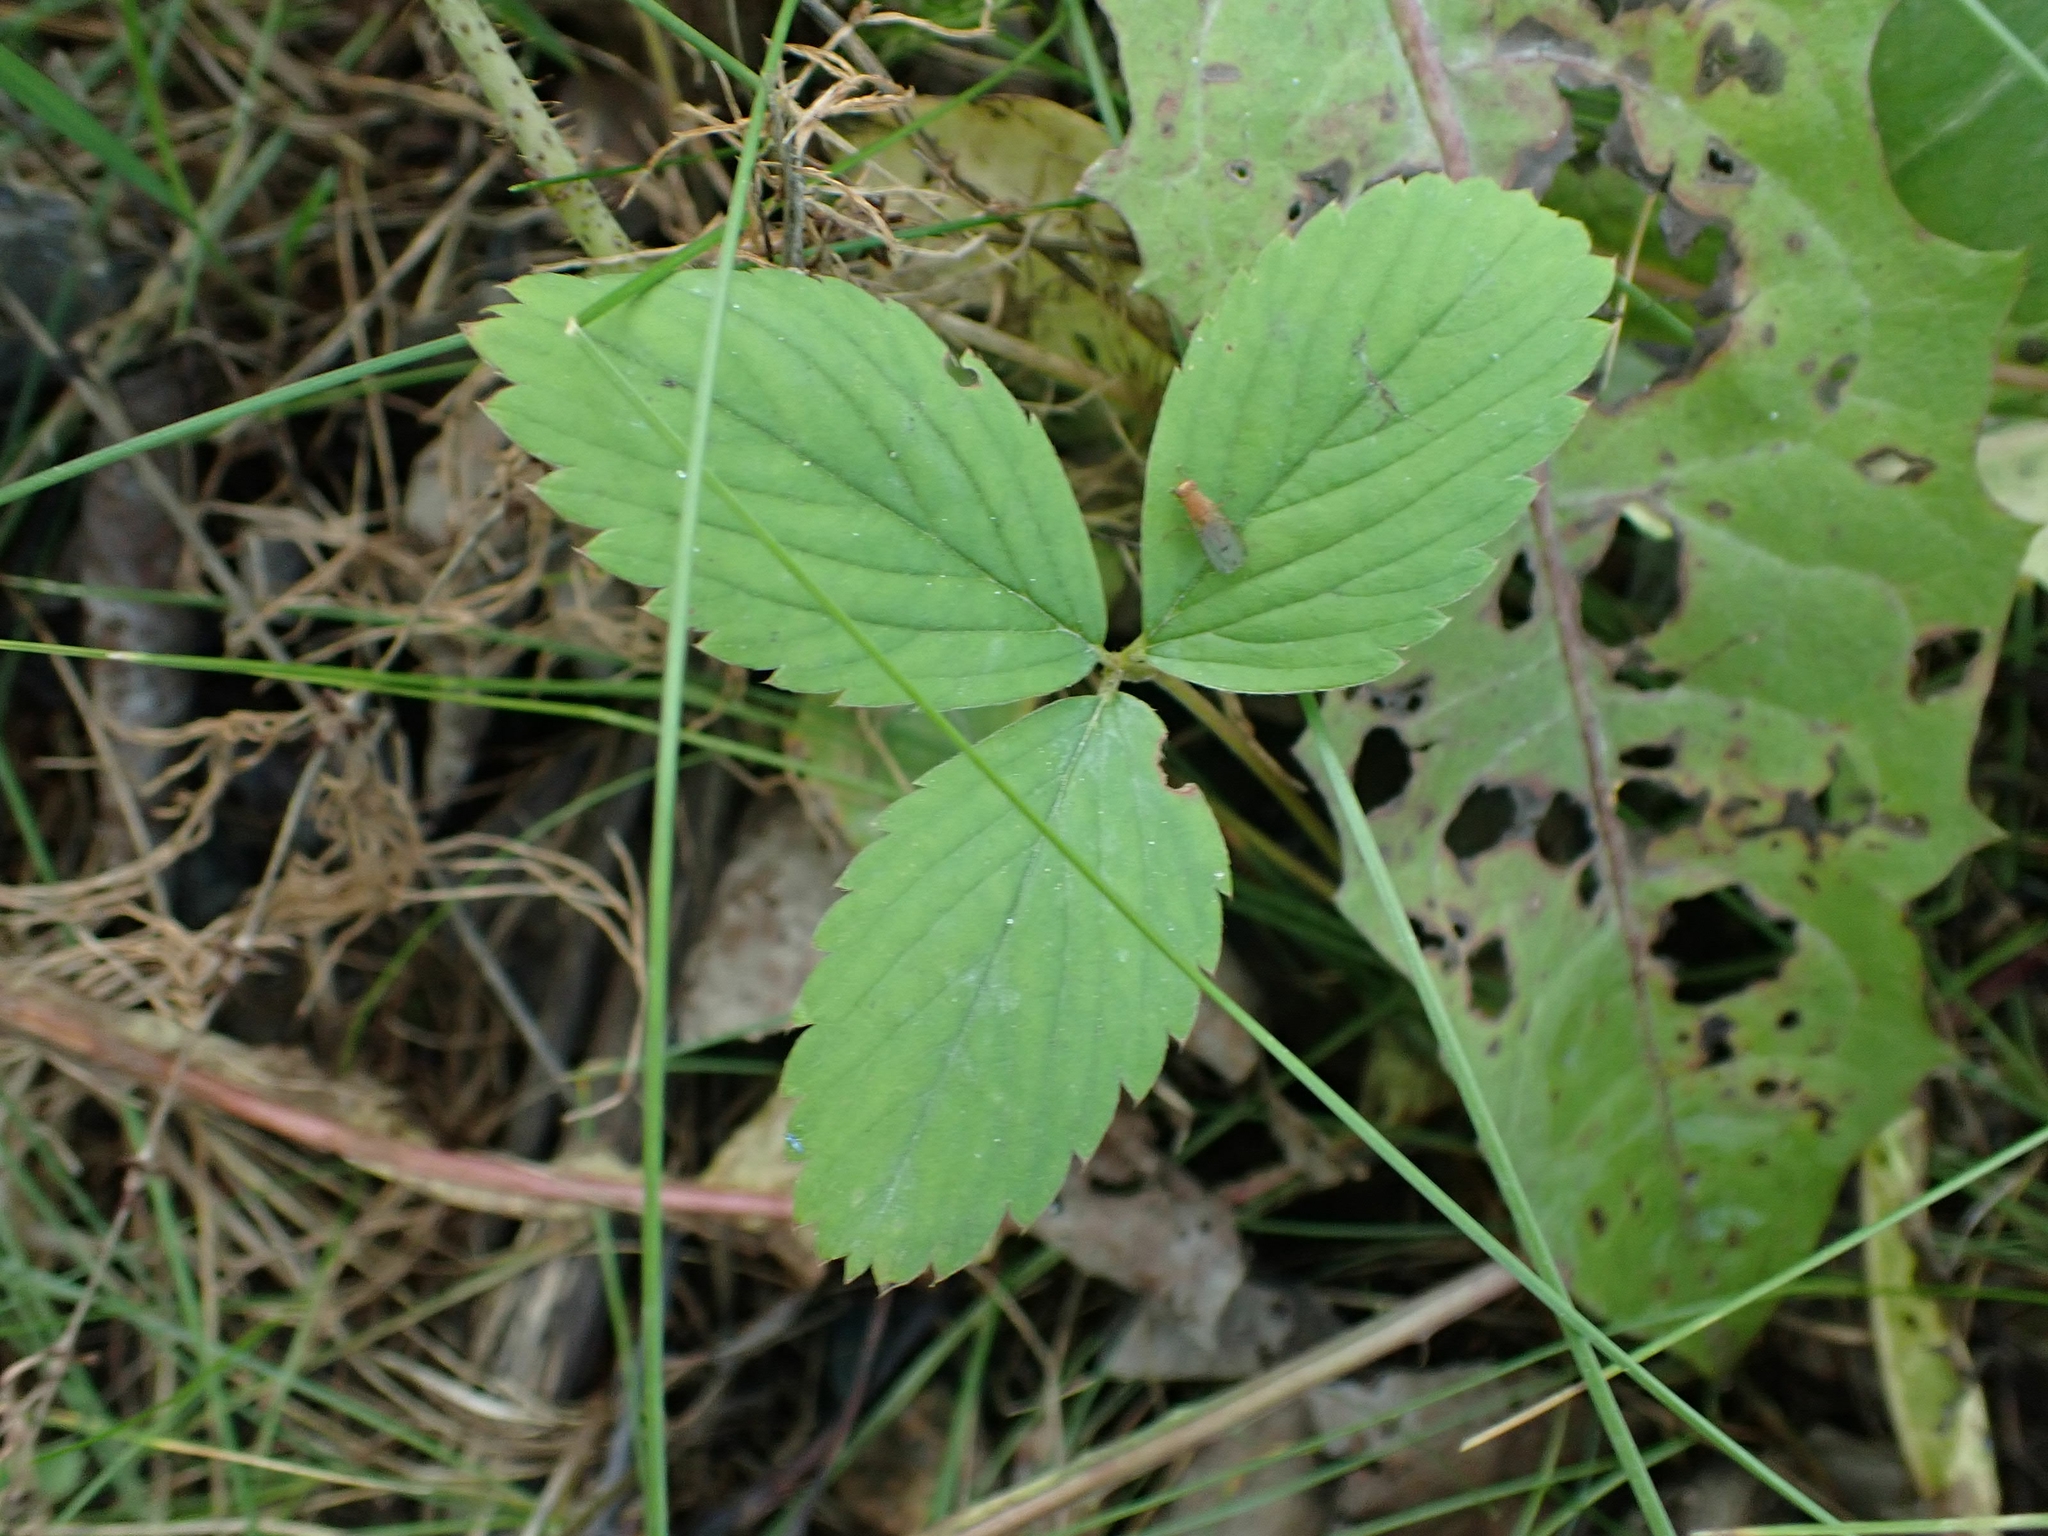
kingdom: Plantae
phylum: Tracheophyta
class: Magnoliopsida
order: Rosales
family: Rosaceae
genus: Fragaria
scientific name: Fragaria virginiana
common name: Thickleaved wild strawberry
